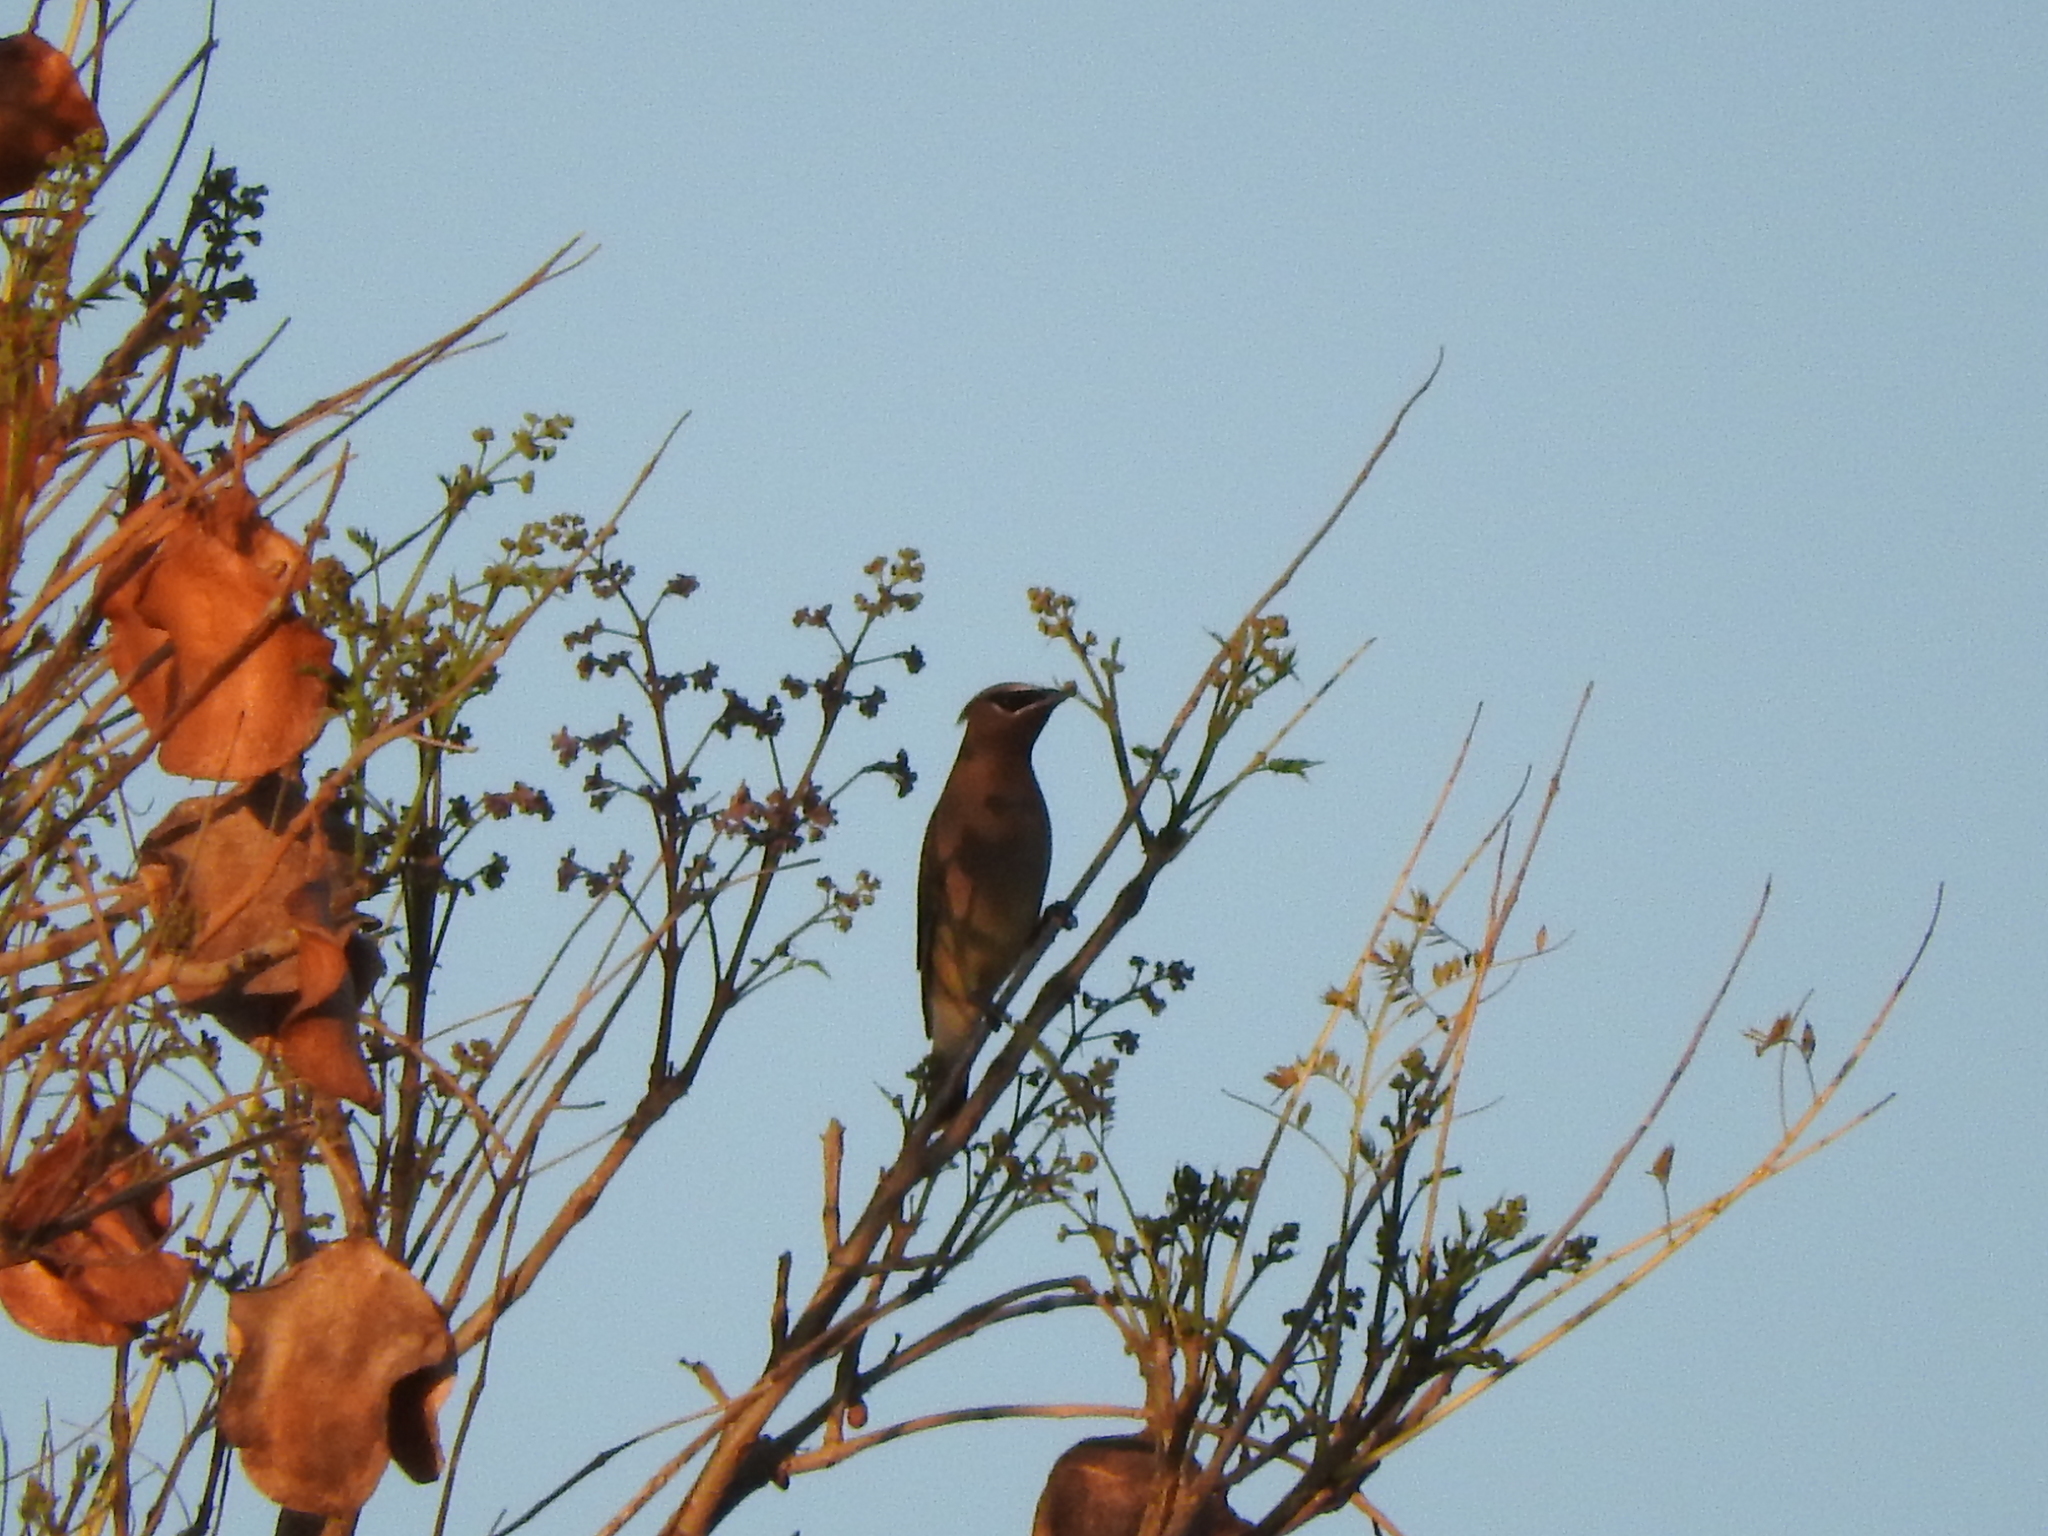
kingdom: Animalia
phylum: Chordata
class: Aves
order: Passeriformes
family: Bombycillidae
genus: Bombycilla
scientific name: Bombycilla cedrorum
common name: Cedar waxwing
